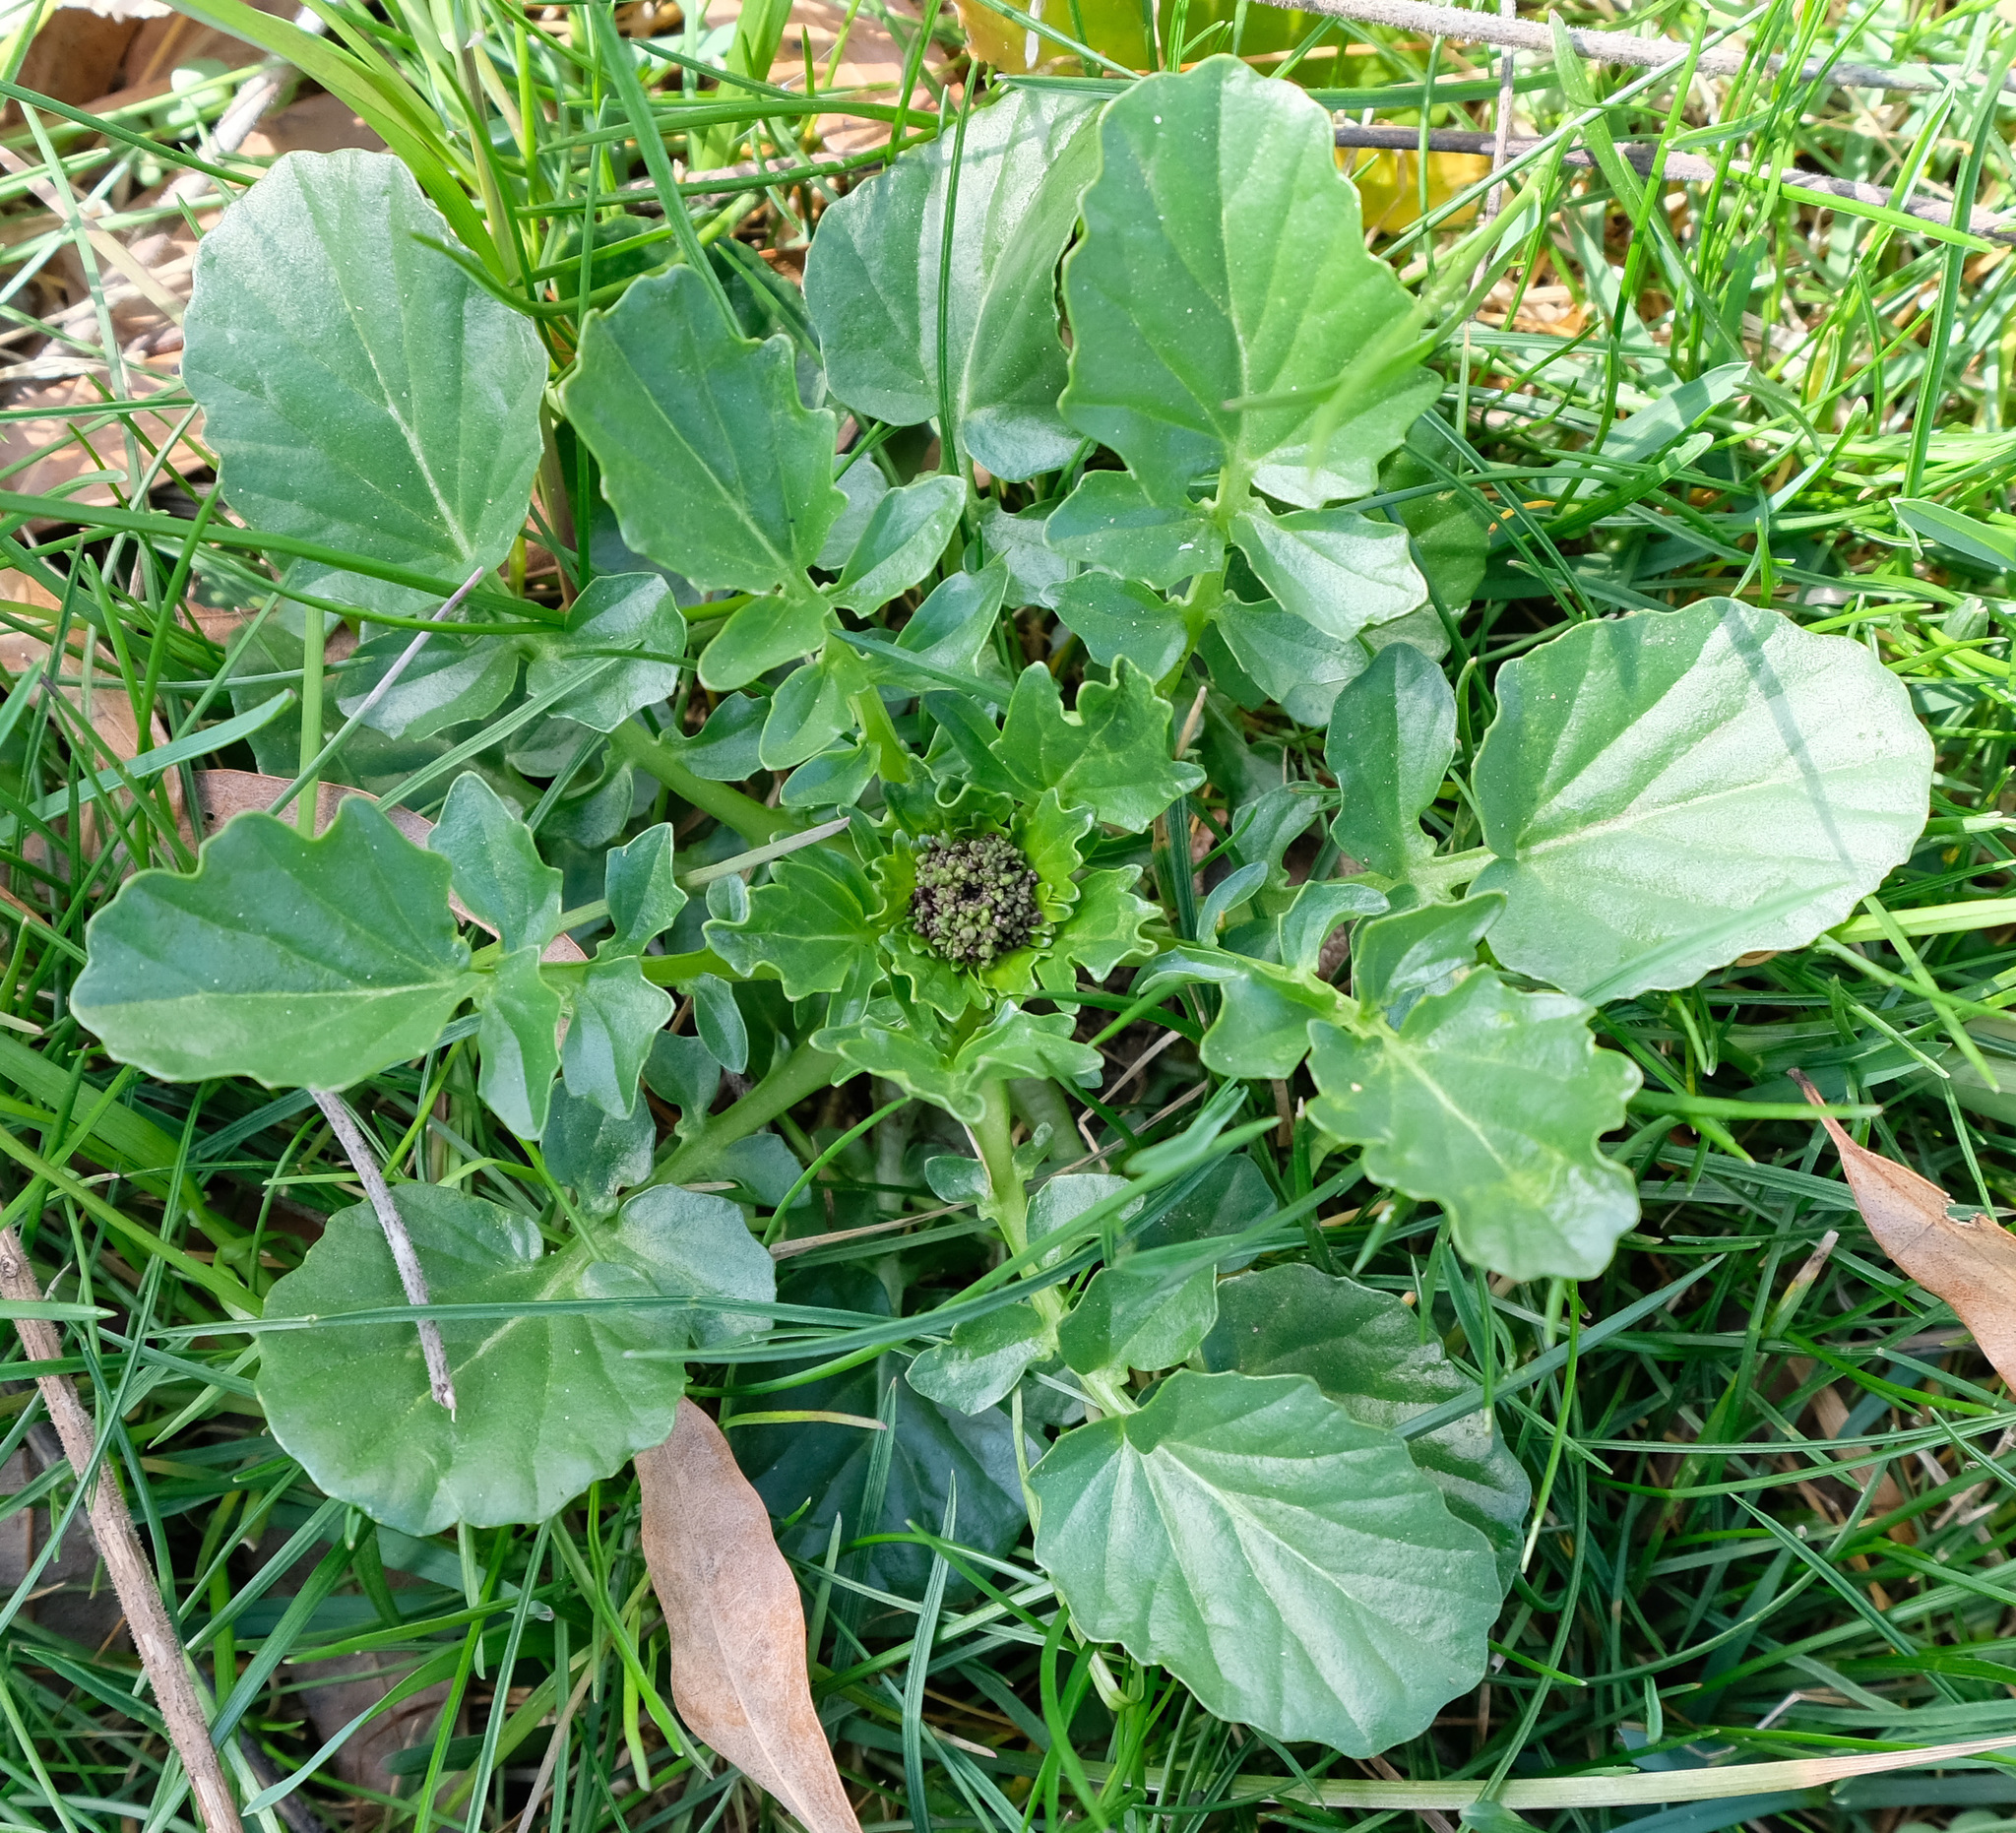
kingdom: Plantae
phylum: Tracheophyta
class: Magnoliopsida
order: Brassicales
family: Brassicaceae
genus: Barbarea
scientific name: Barbarea vulgaris
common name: Cressy-greens
